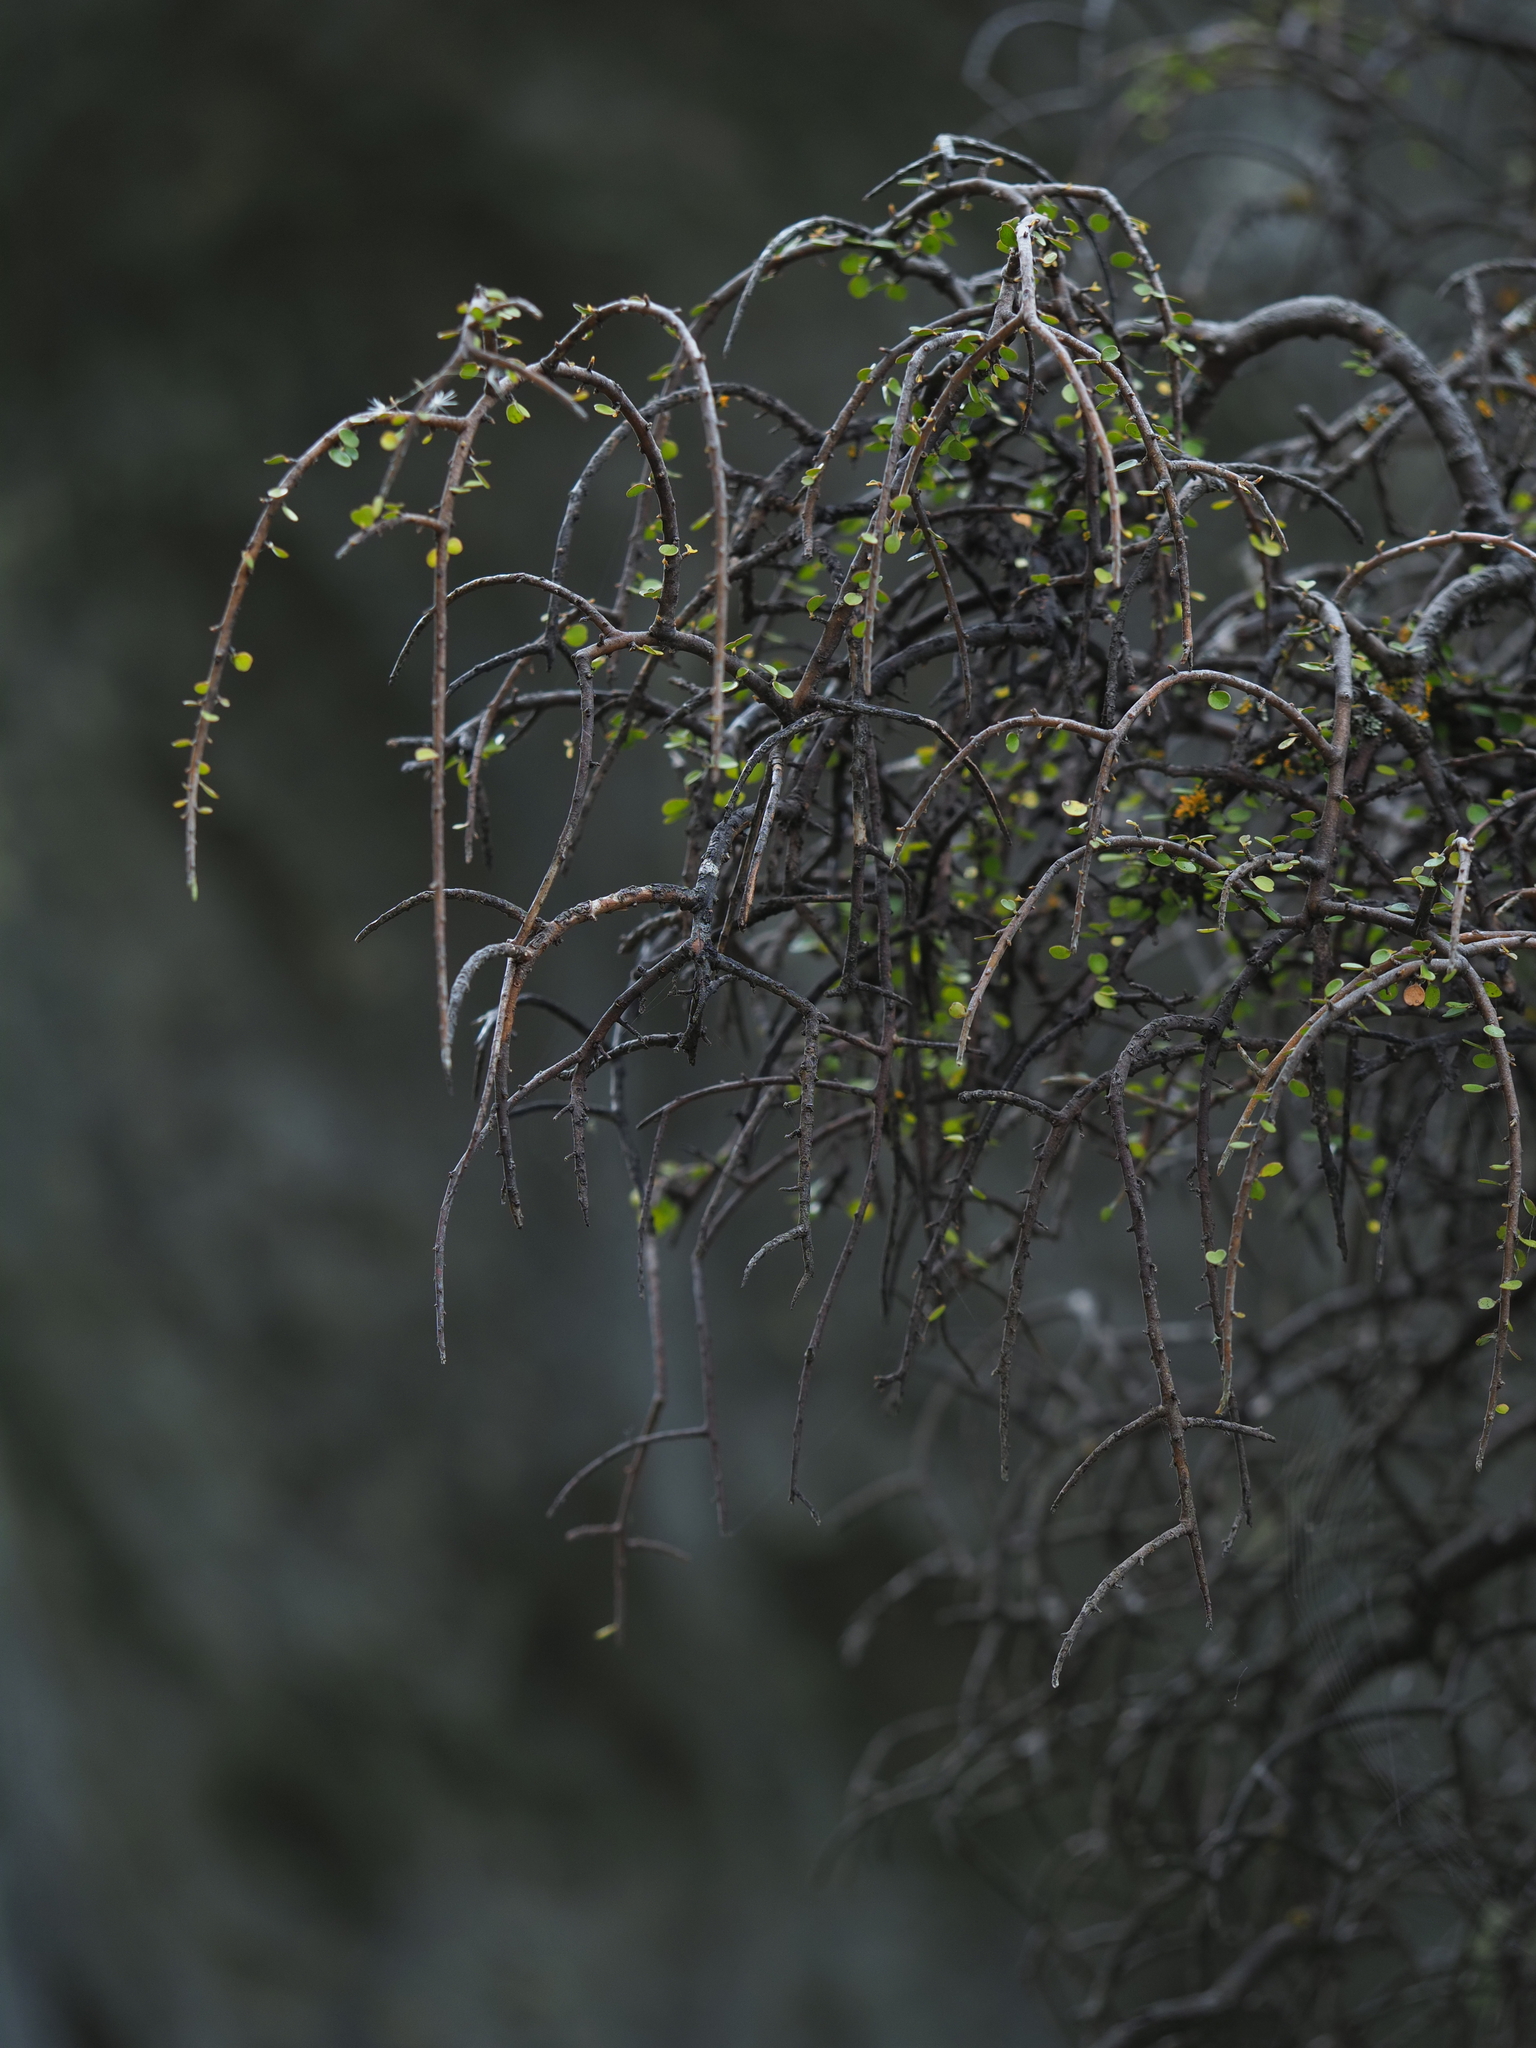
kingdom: Plantae
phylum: Tracheophyta
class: Magnoliopsida
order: Ericales
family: Primulaceae
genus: Myrsine
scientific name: Myrsine divaricata
